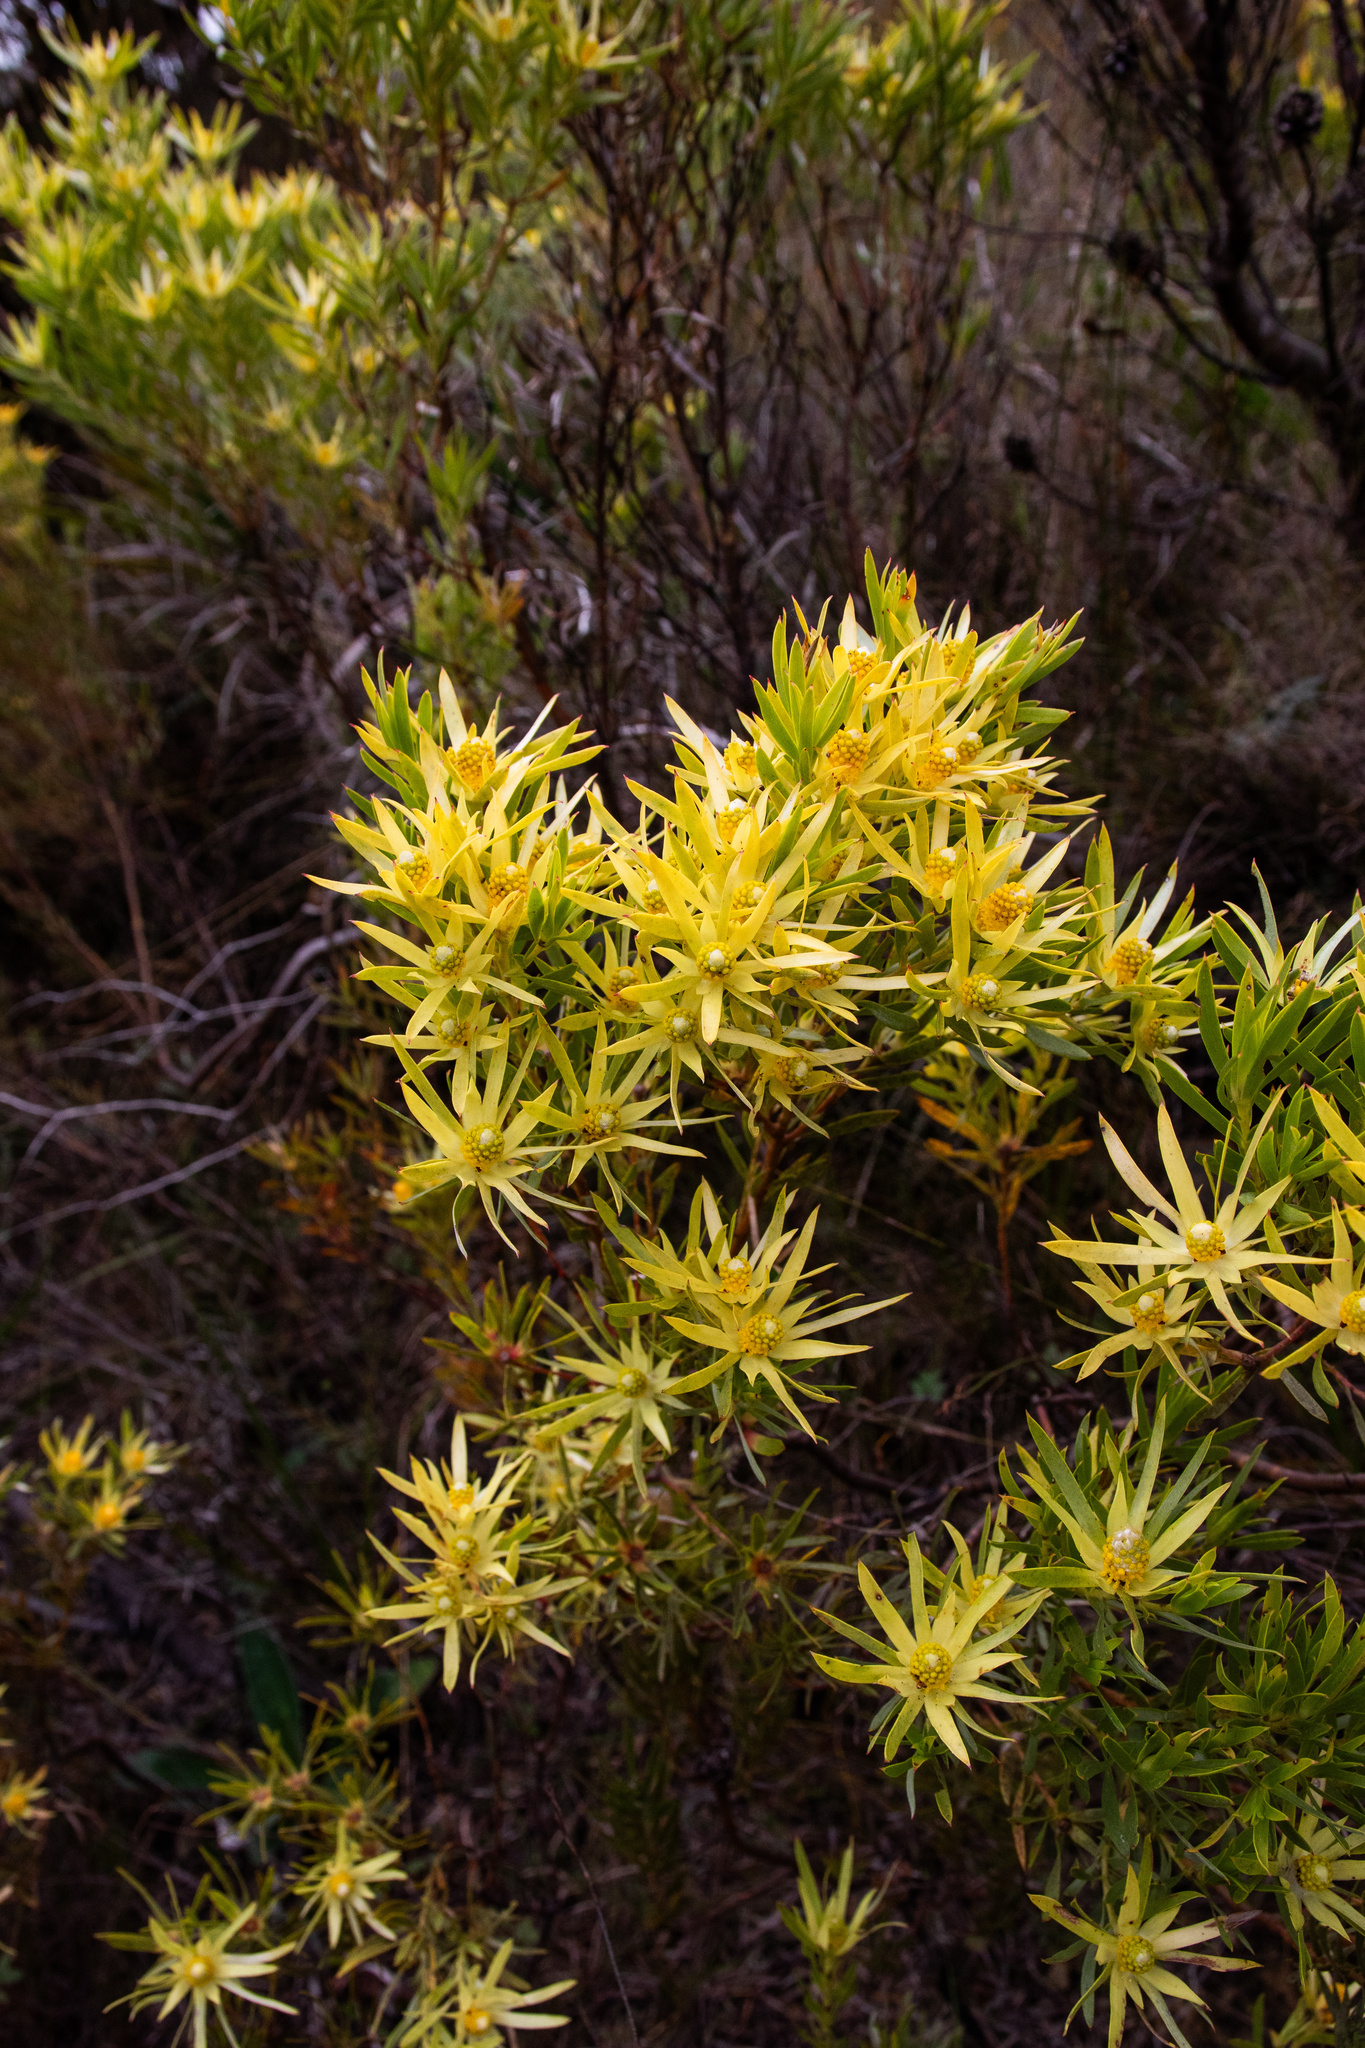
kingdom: Plantae
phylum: Tracheophyta
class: Magnoliopsida
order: Proteales
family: Proteaceae
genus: Leucadendron
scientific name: Leucadendron xanthoconus
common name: Sickle-leaf conebush
